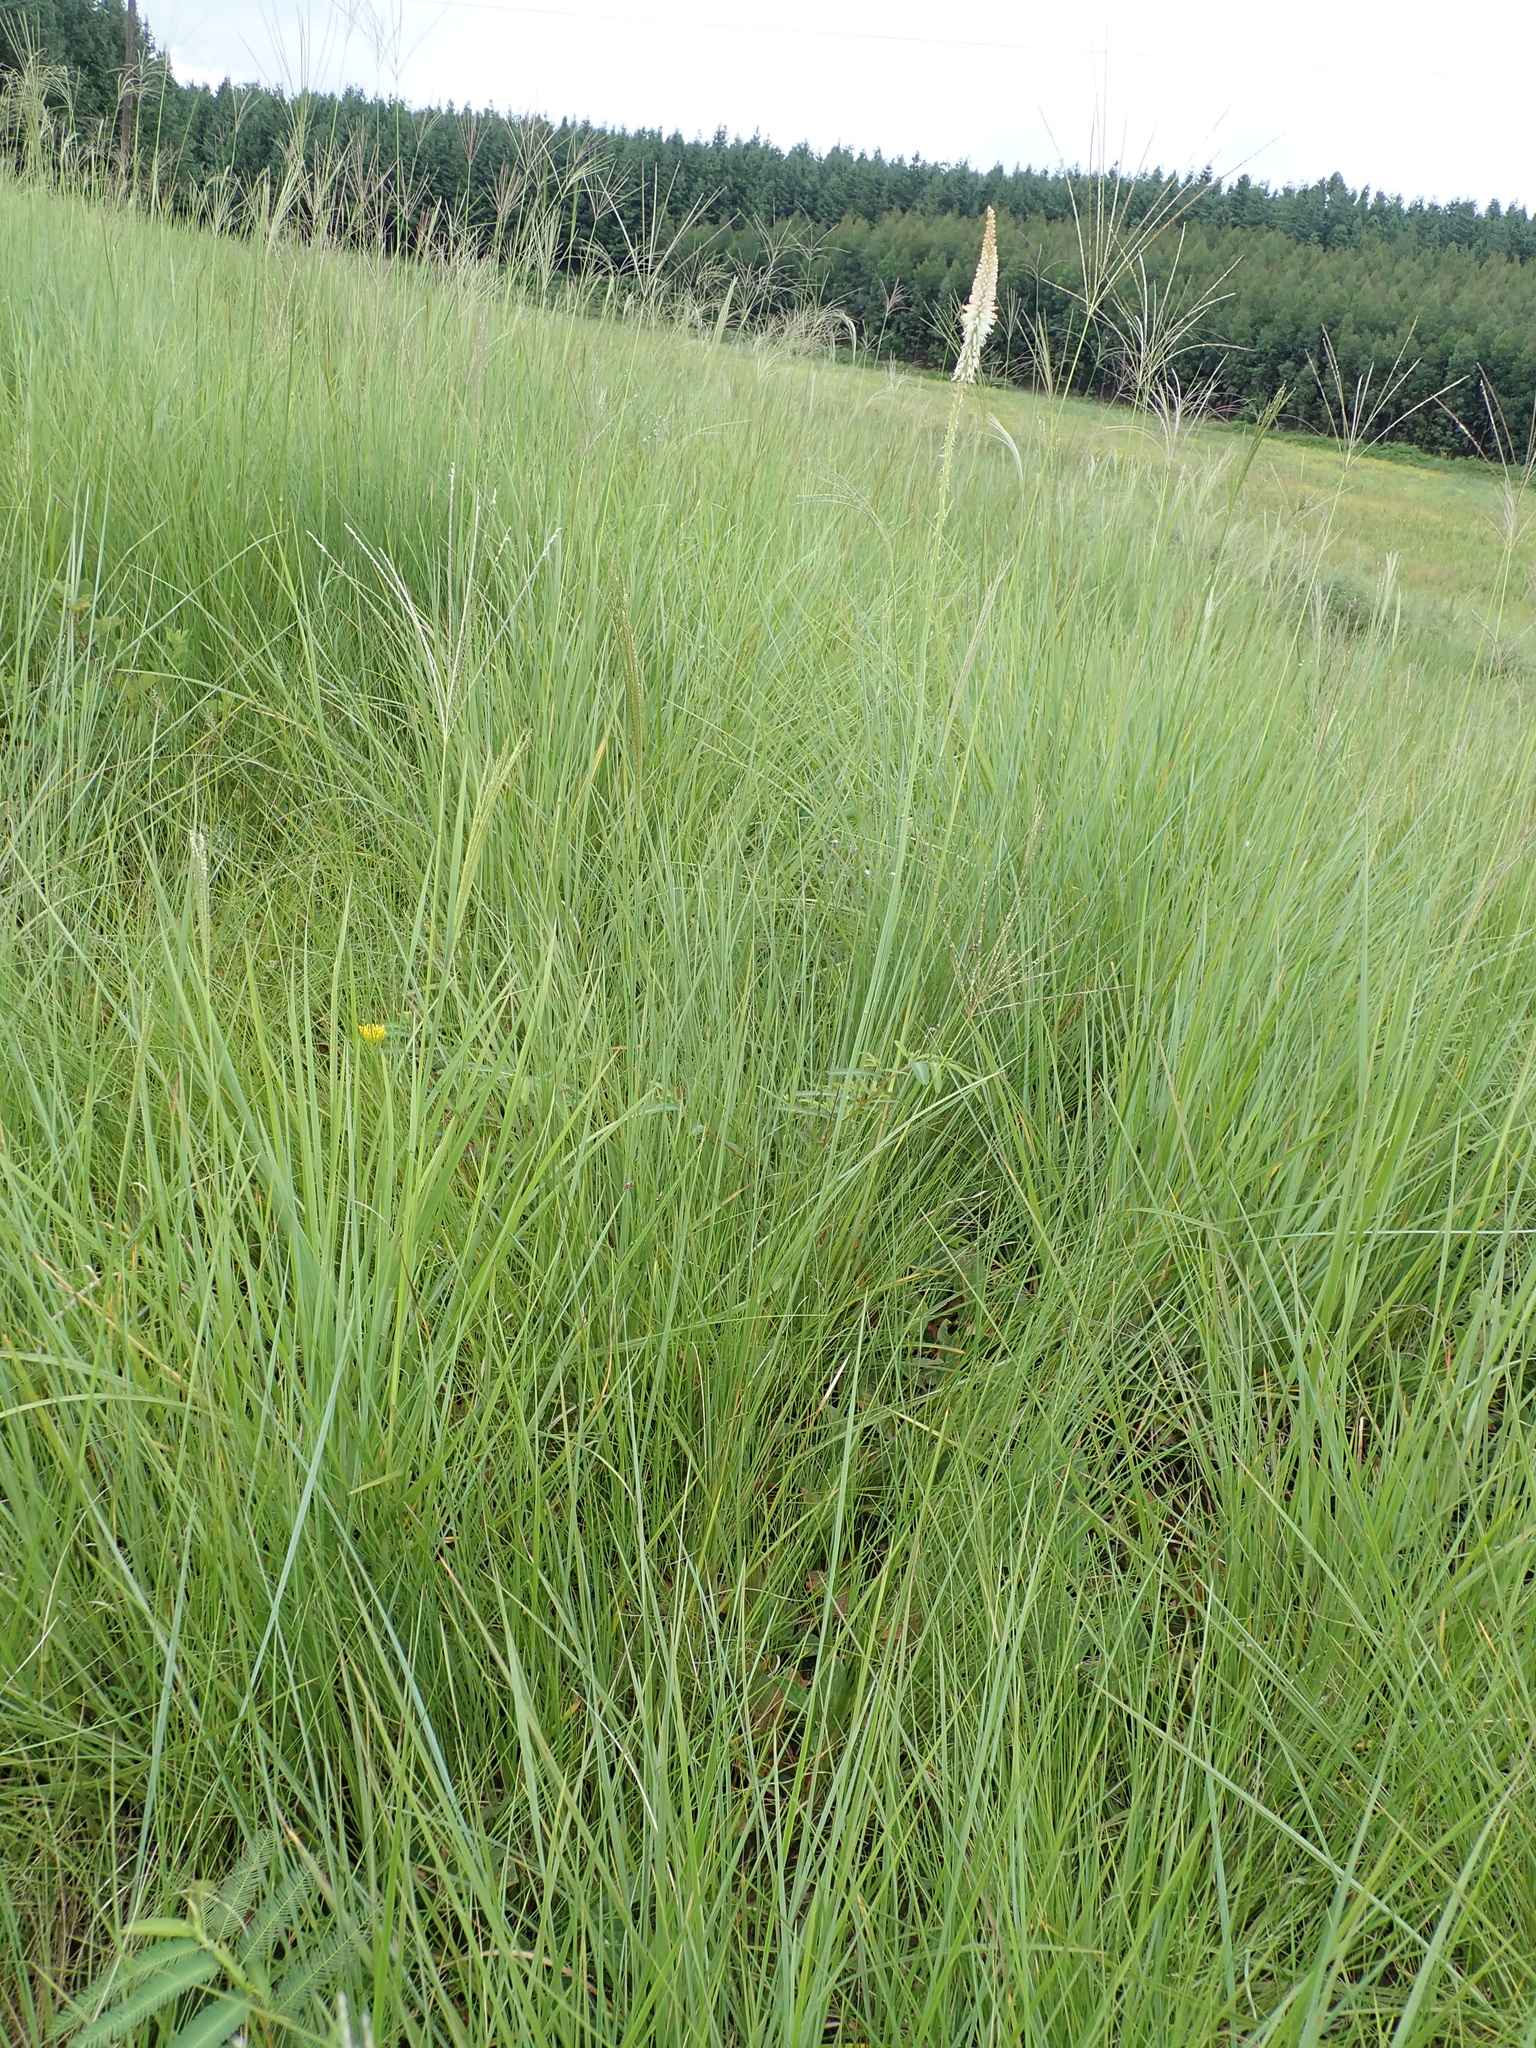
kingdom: Plantae
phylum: Tracheophyta
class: Liliopsida
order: Asparagales
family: Asphodelaceae
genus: Kniphofia
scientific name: Kniphofia buchananii
